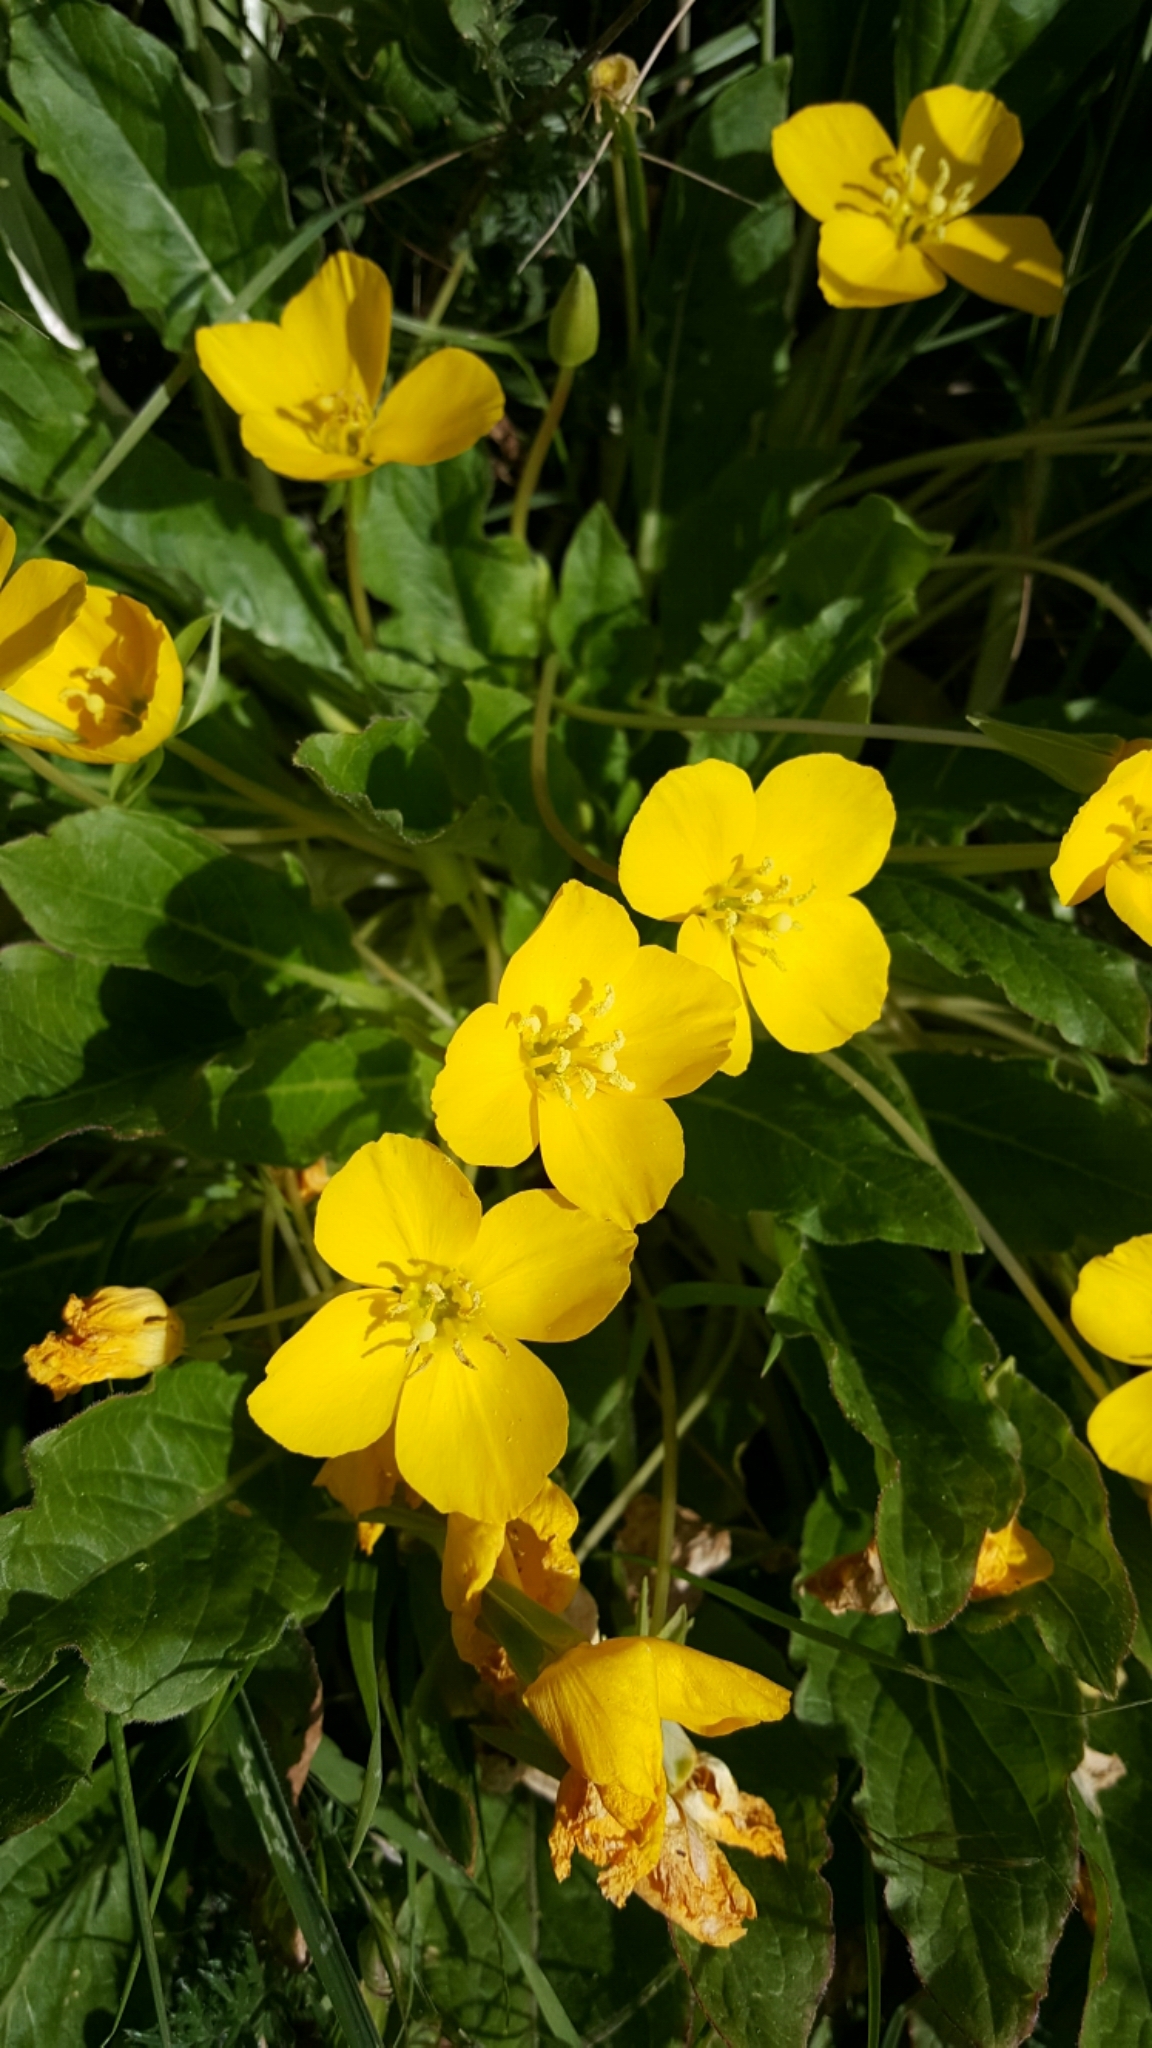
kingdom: Plantae
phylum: Tracheophyta
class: Magnoliopsida
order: Myrtales
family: Onagraceae
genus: Taraxia
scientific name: Taraxia ovata
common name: Goldeneggs
